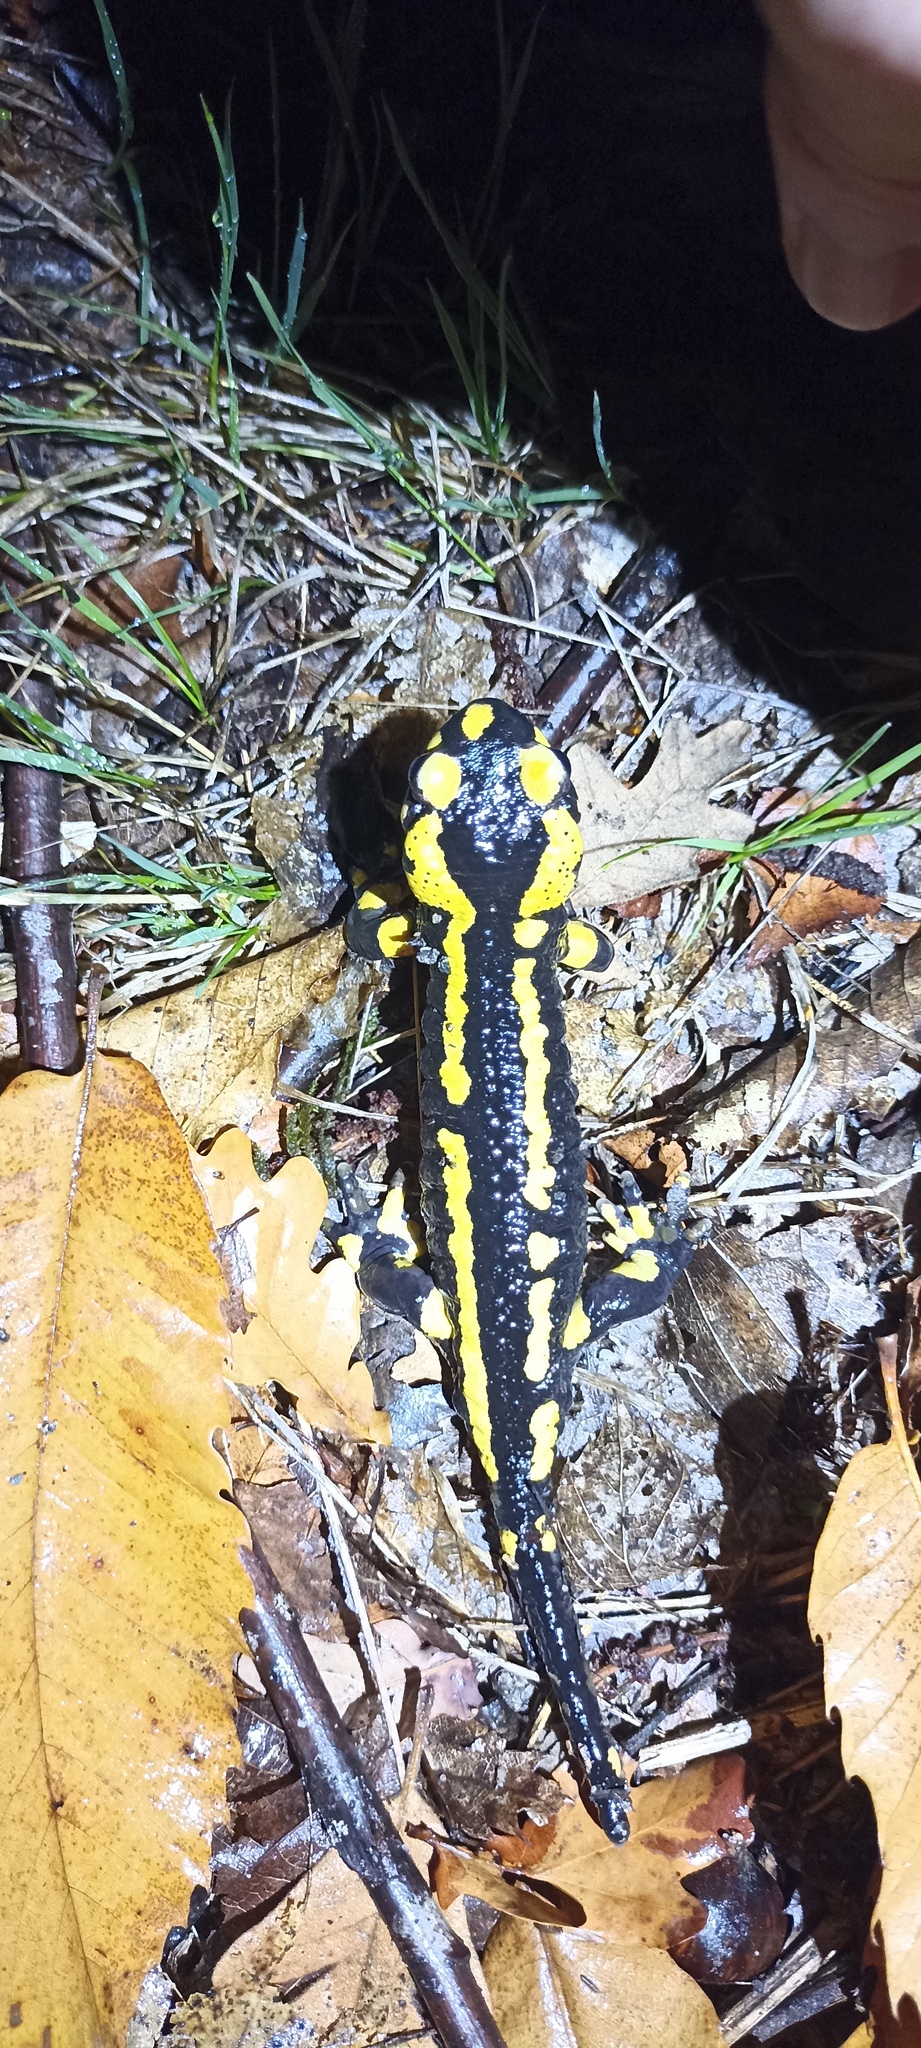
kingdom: Animalia
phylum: Chordata
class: Amphibia
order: Caudata
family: Salamandridae
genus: Salamandra
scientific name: Salamandra salamandra
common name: Fire salamander
